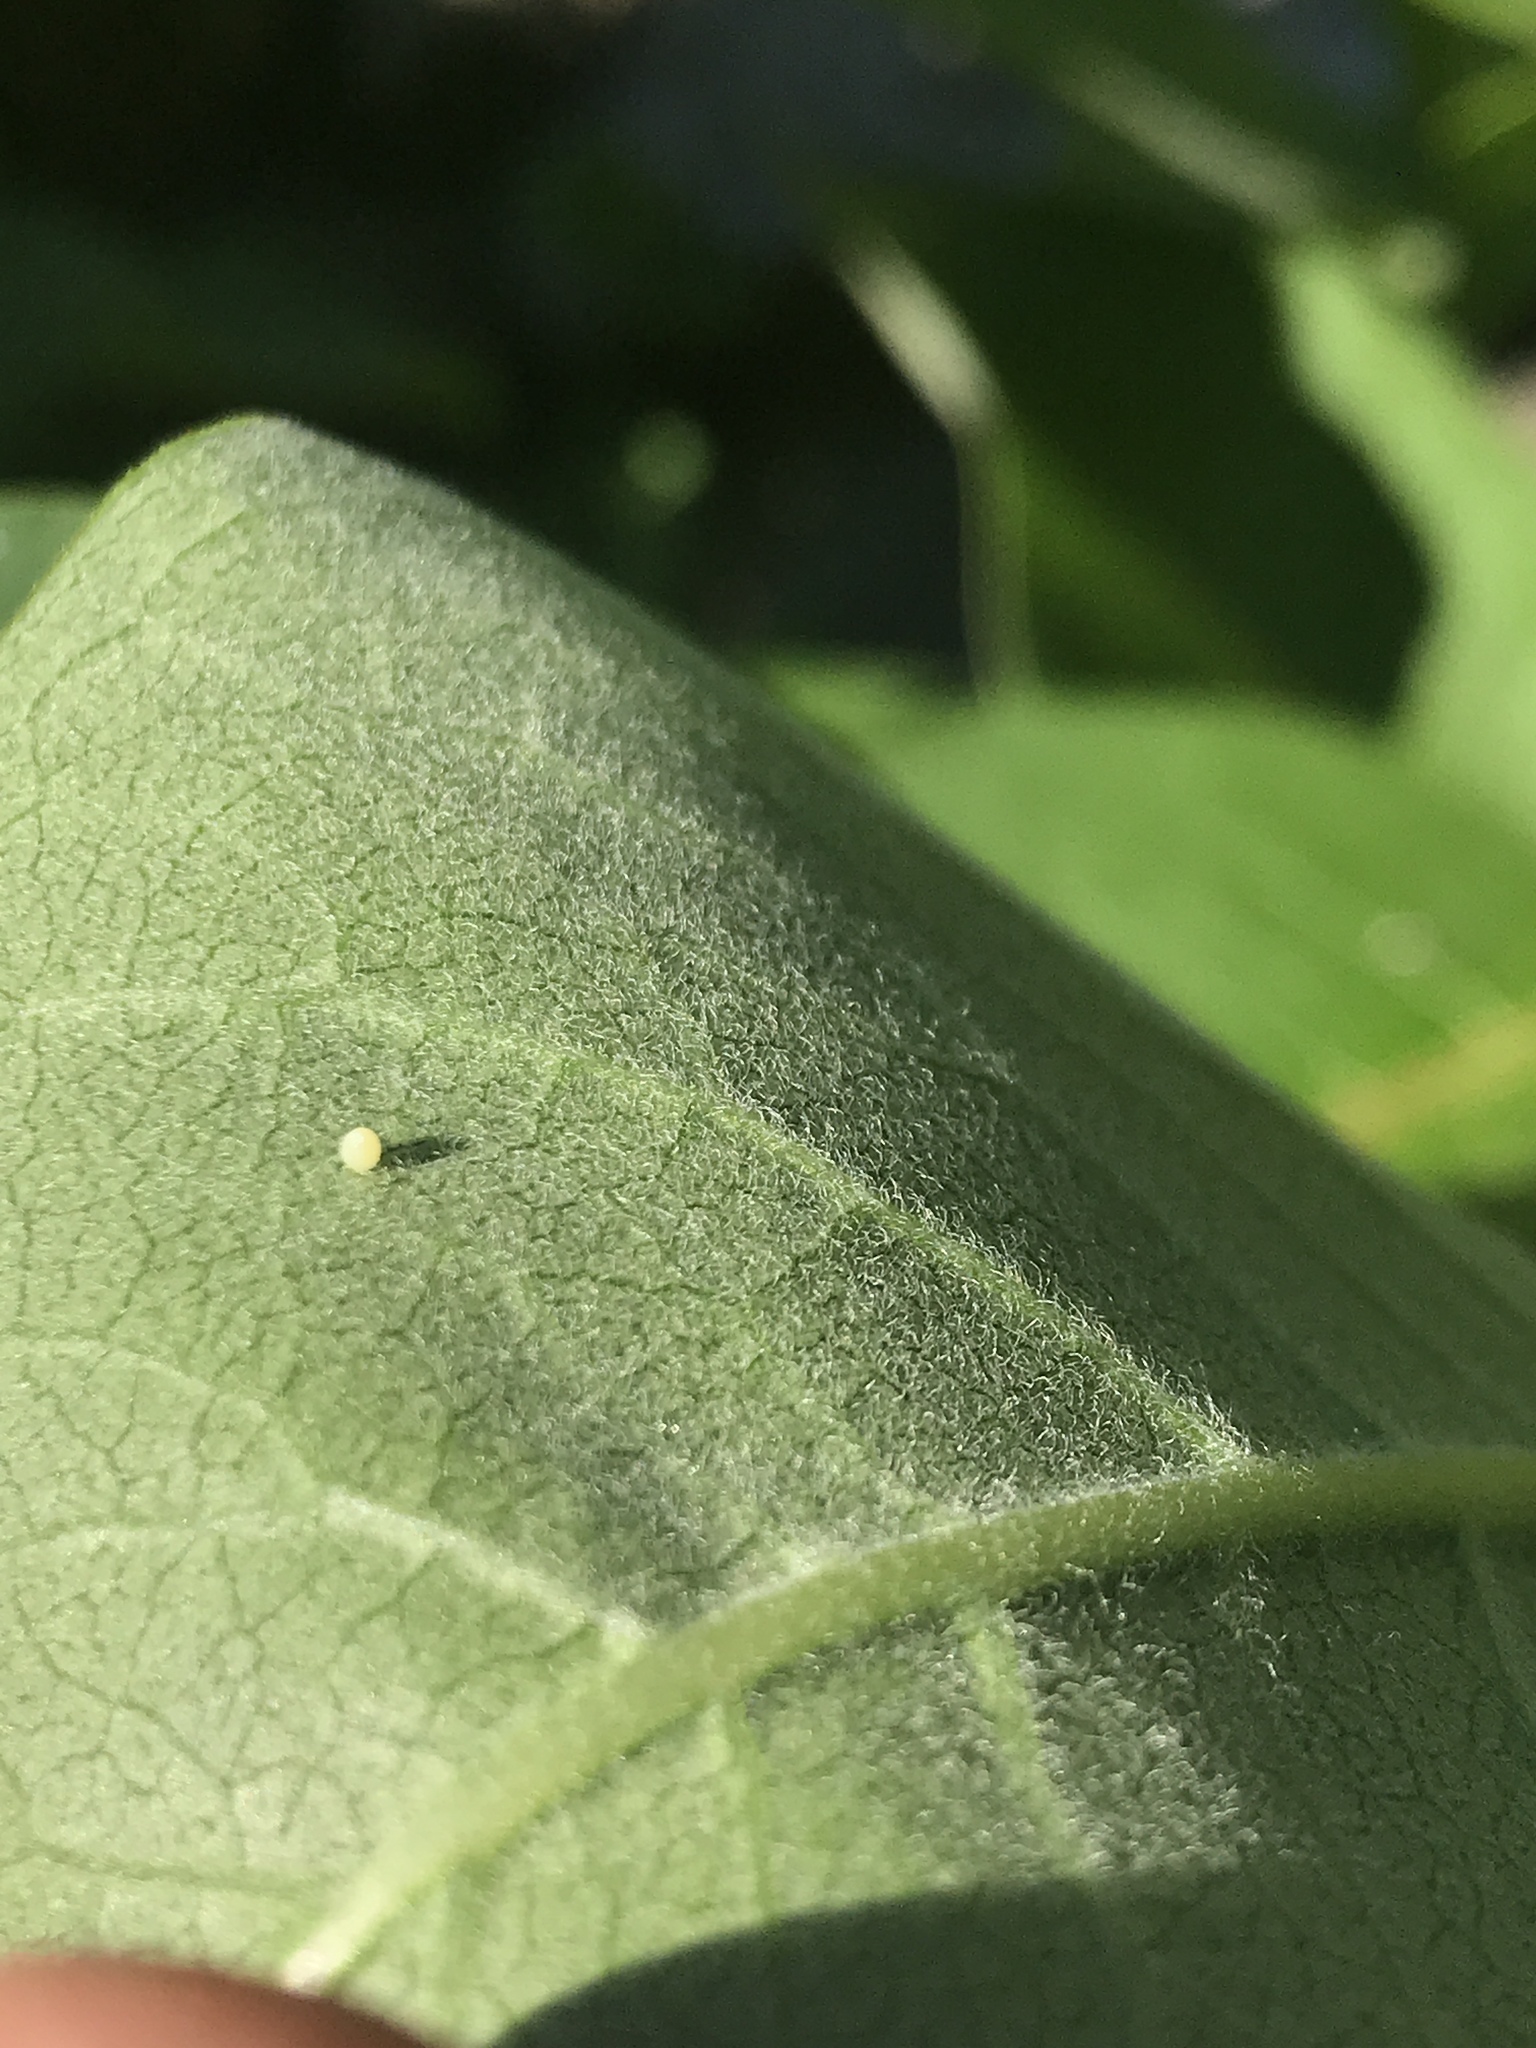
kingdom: Animalia
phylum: Arthropoda
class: Insecta
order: Lepidoptera
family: Nymphalidae
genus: Danaus
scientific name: Danaus plexippus
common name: Monarch
